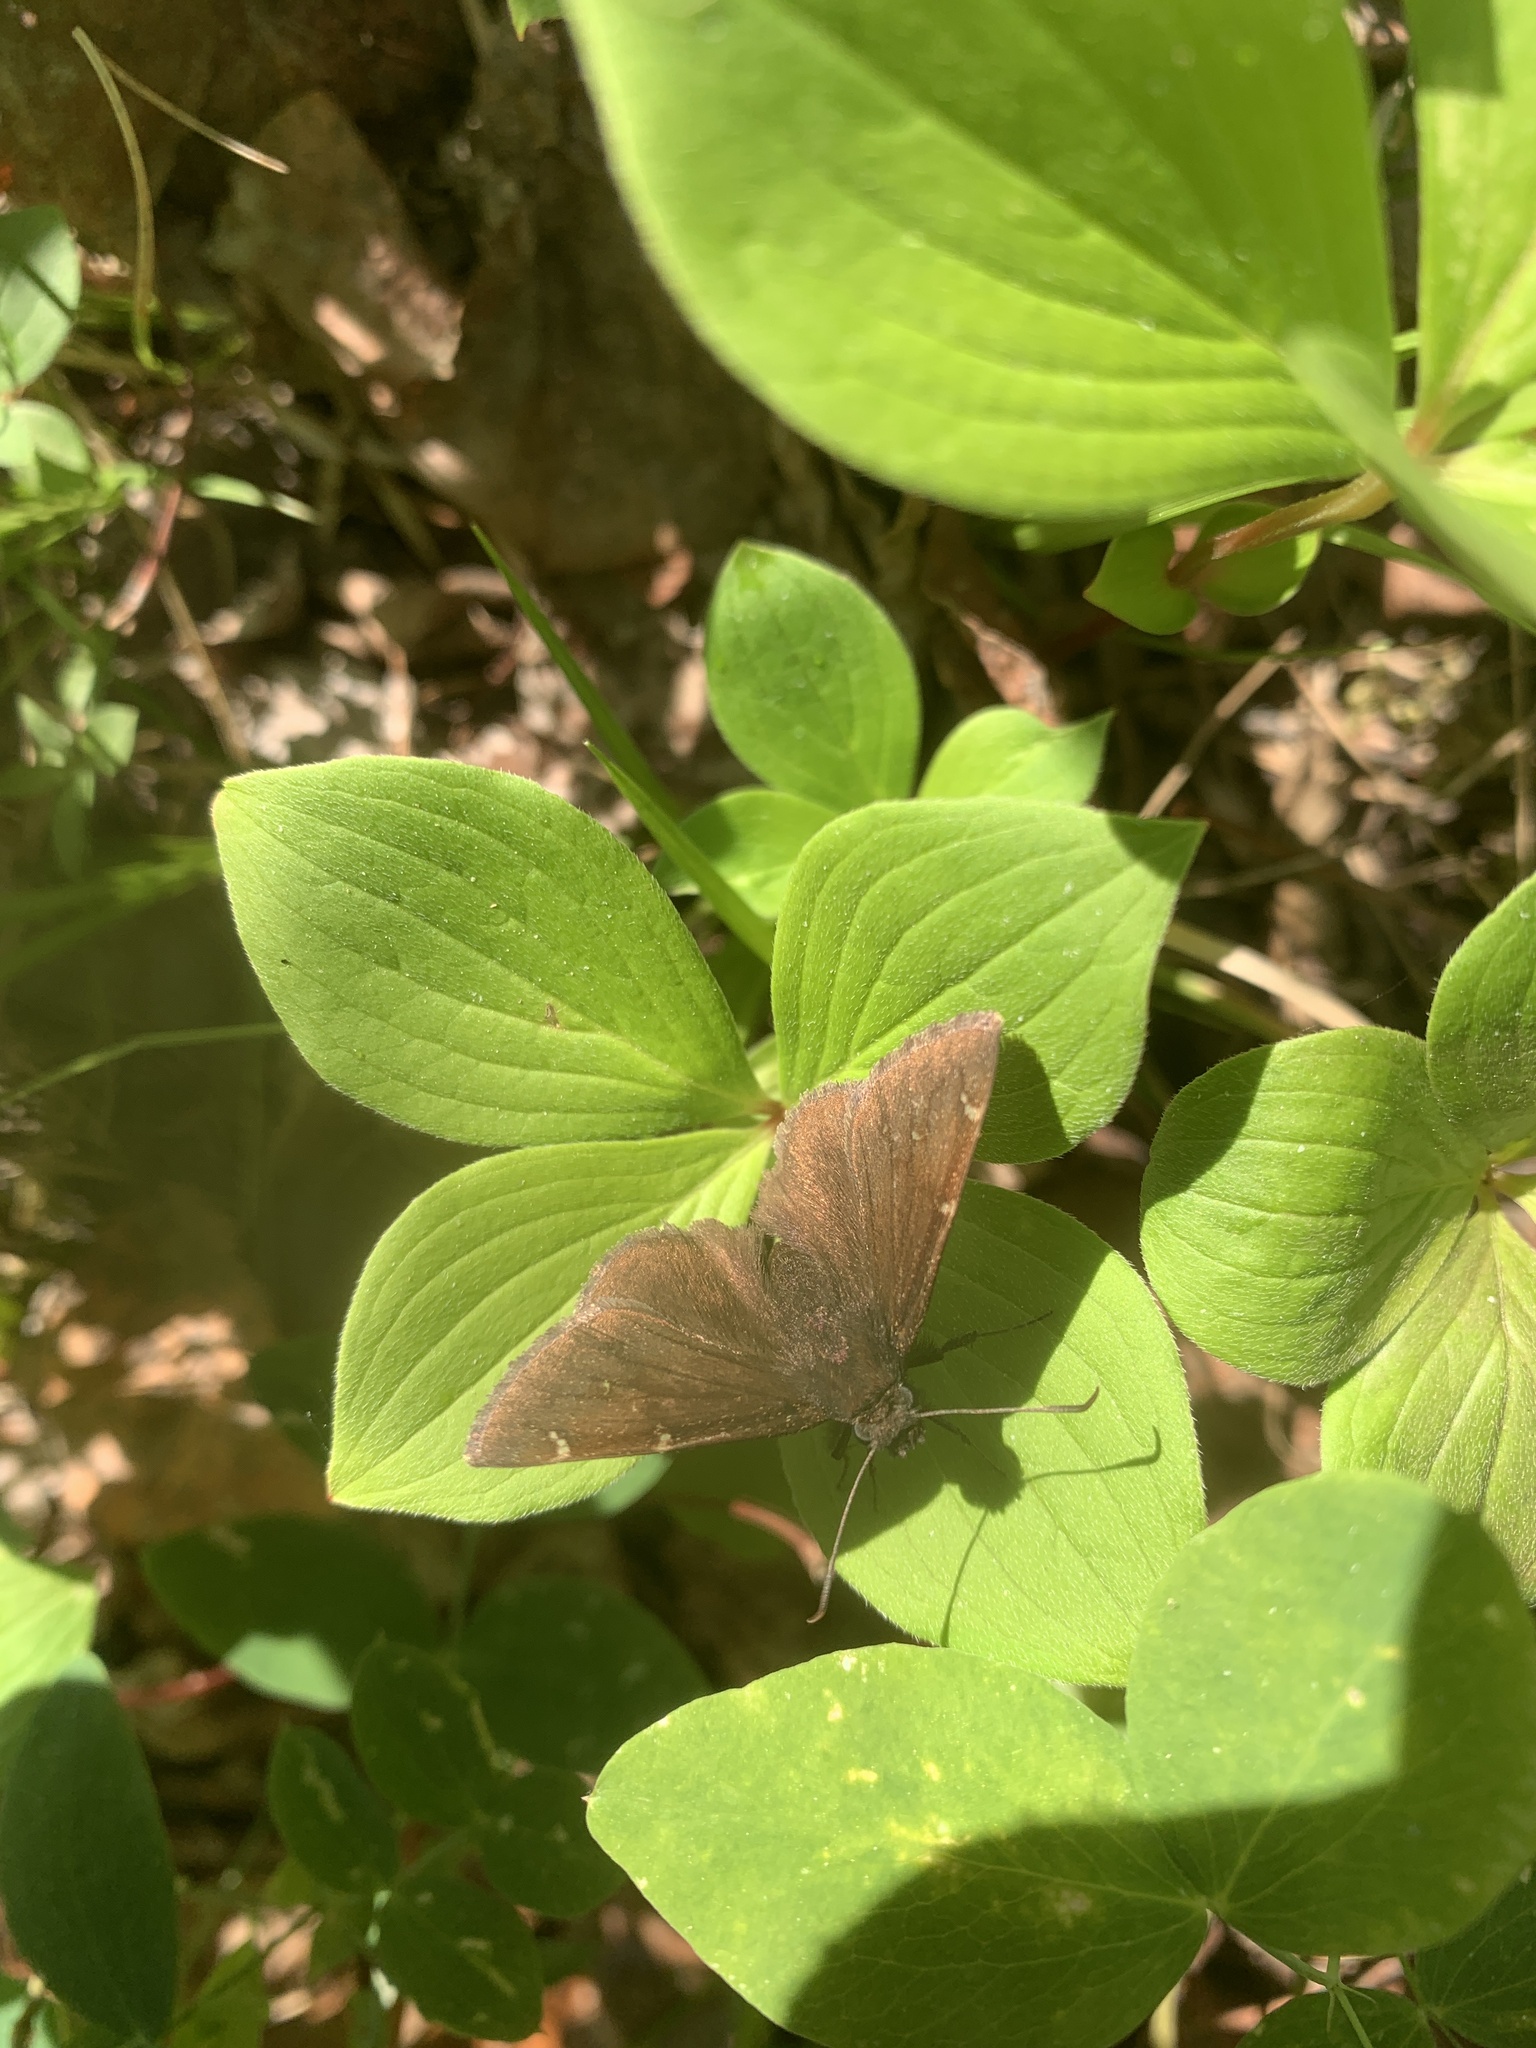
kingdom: Animalia
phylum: Arthropoda
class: Insecta
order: Lepidoptera
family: Hesperiidae
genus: Thorybes
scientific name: Thorybes pylades
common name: Northern cloudywing
